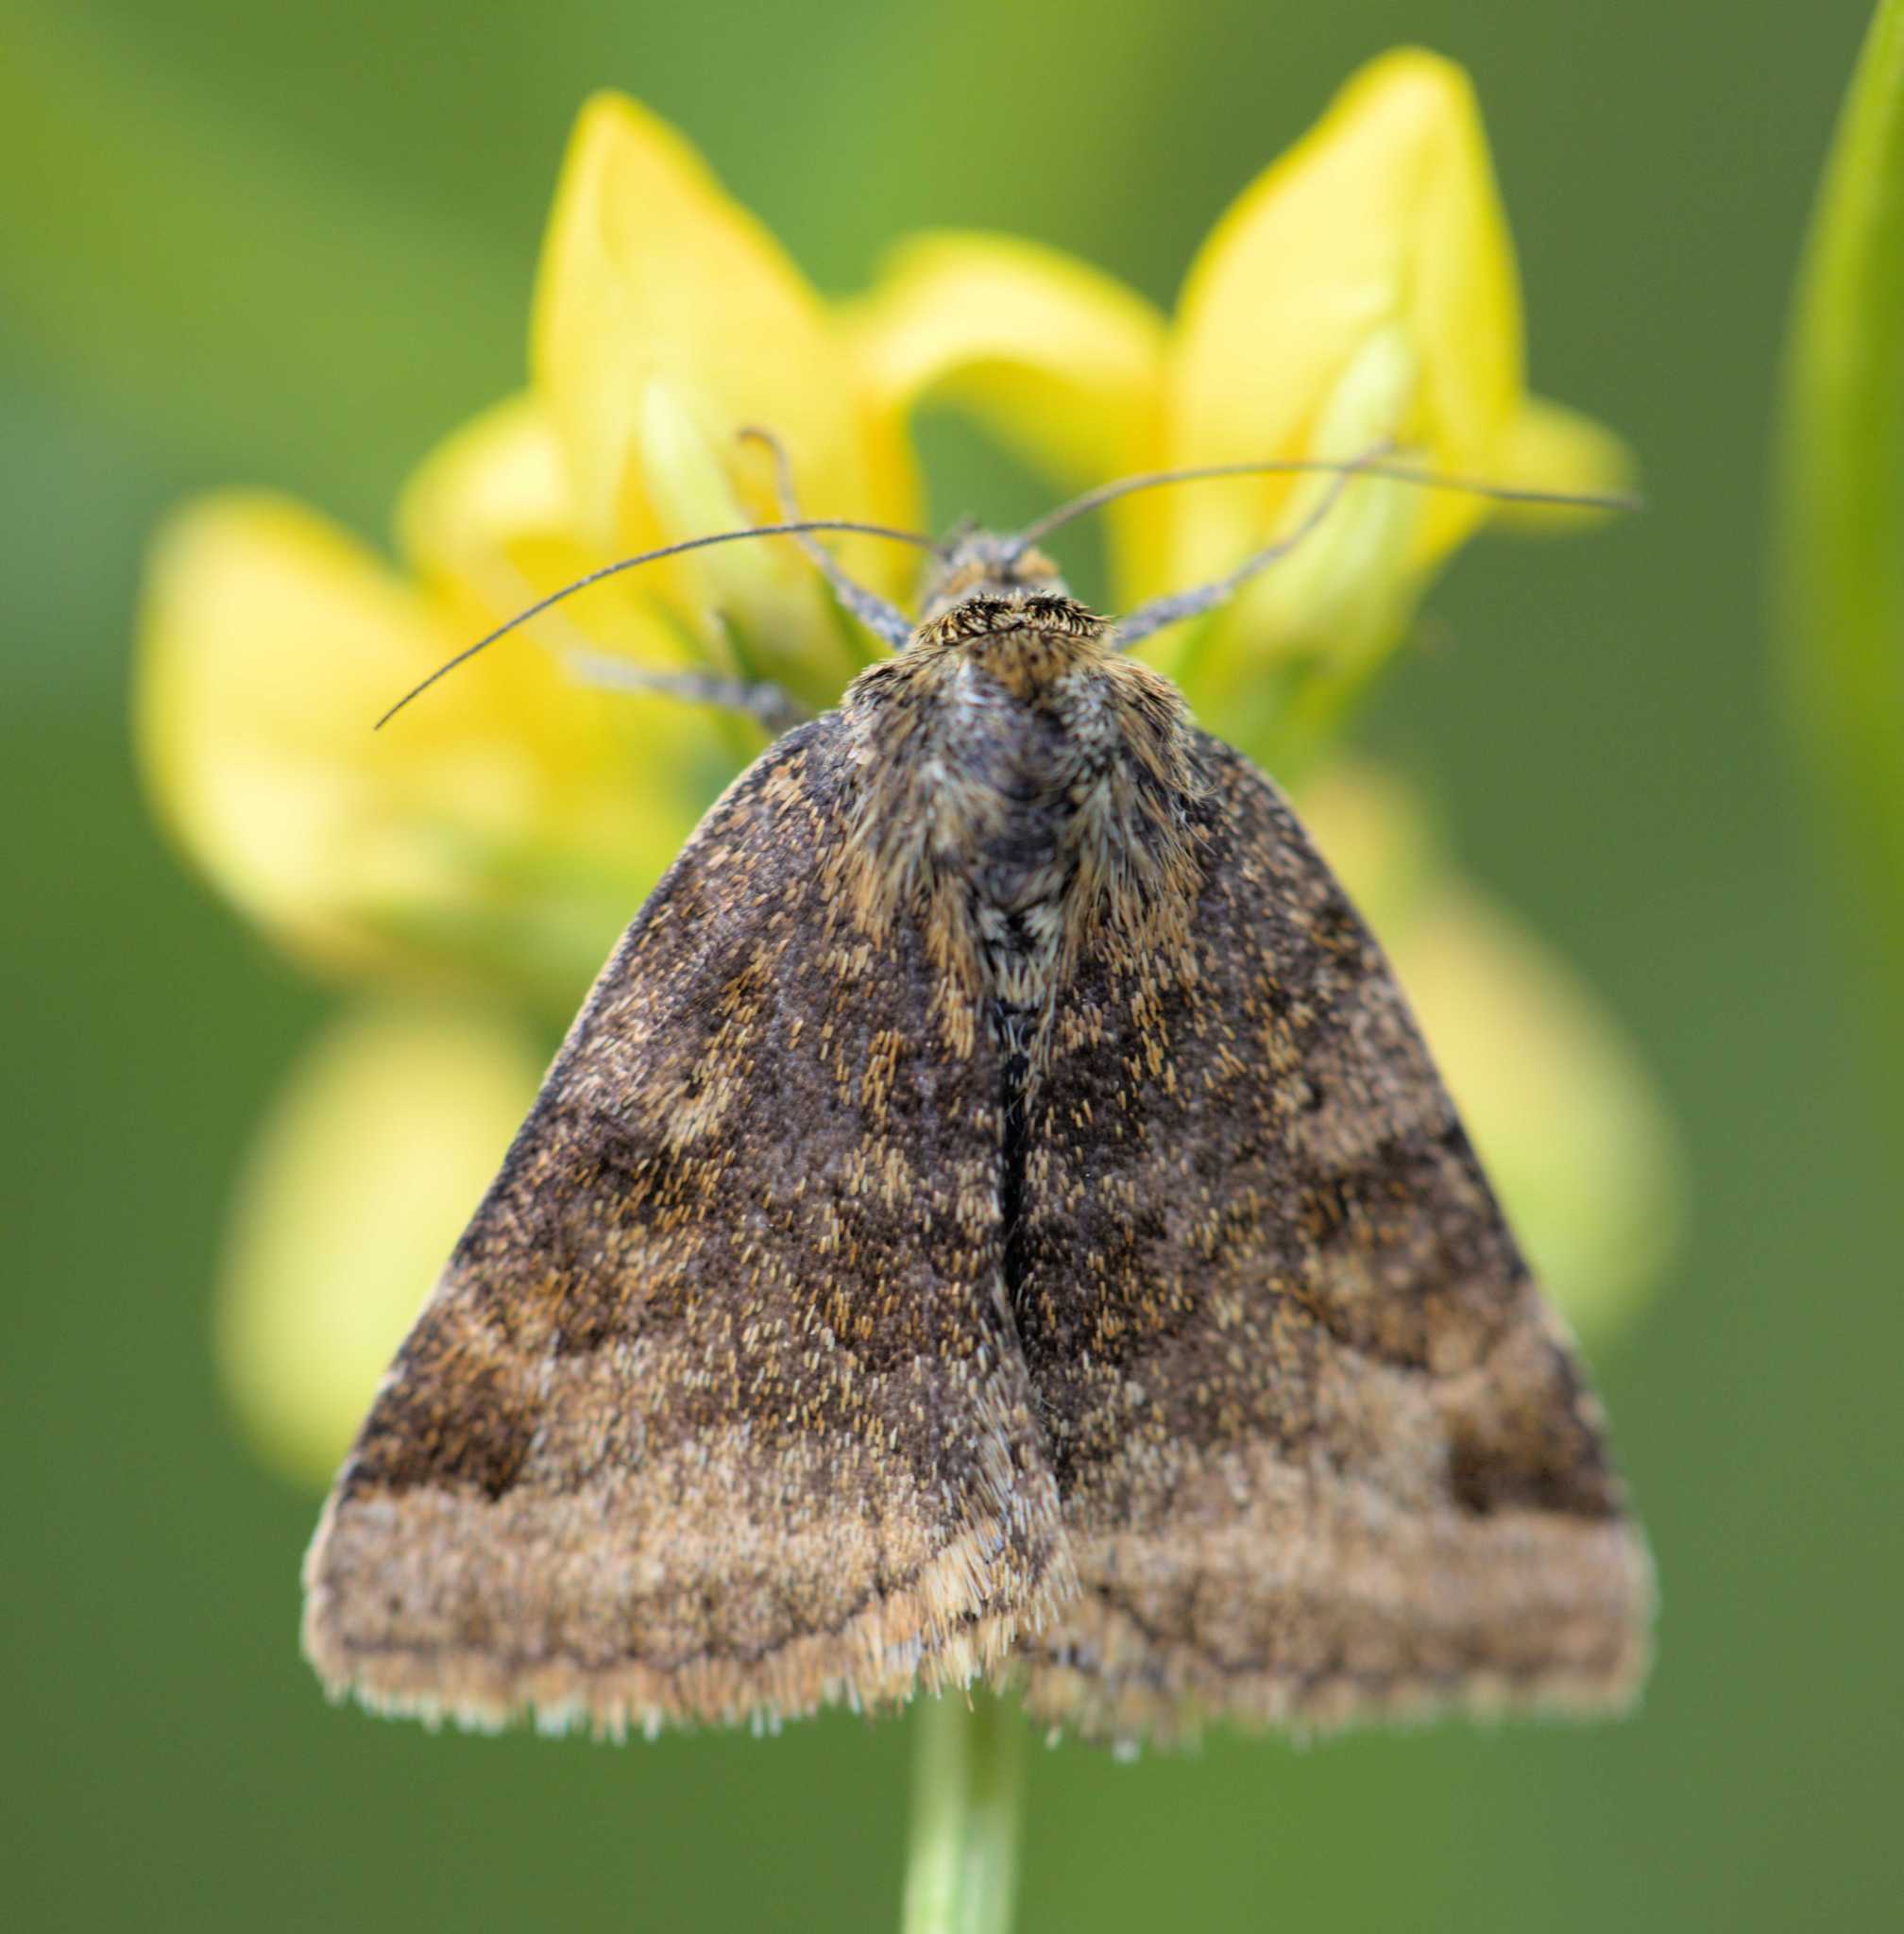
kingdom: Animalia
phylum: Arthropoda
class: Insecta
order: Lepidoptera
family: Erebidae
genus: Euclidia
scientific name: Euclidia glyphica
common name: Burnet companion
